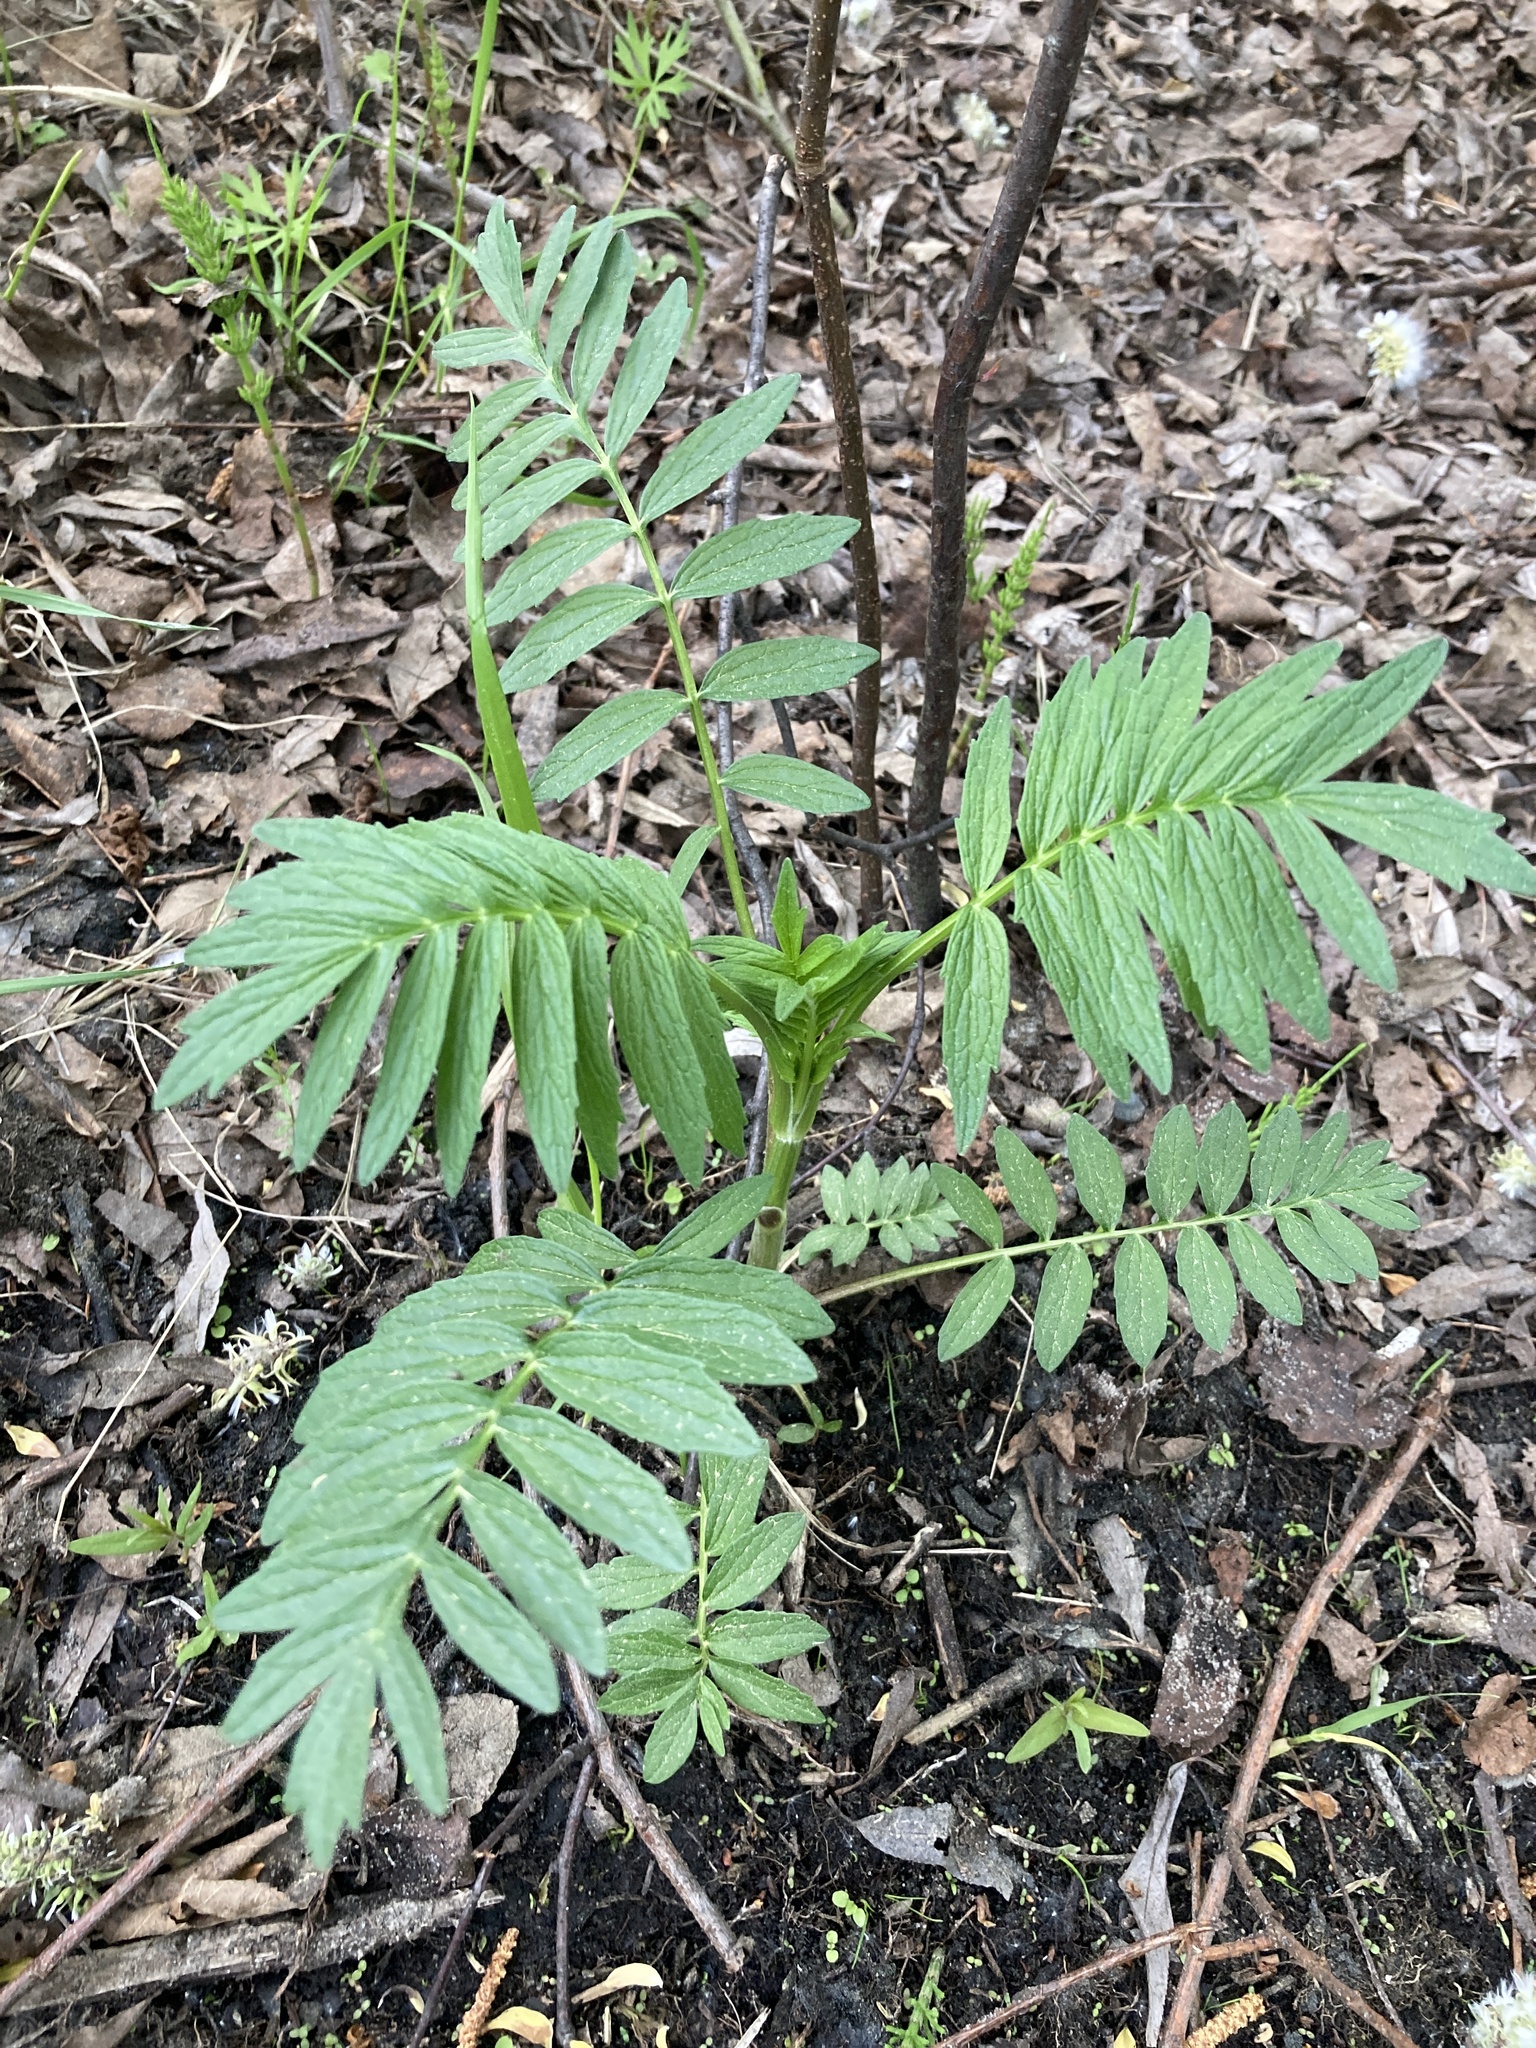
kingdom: Plantae
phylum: Tracheophyta
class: Magnoliopsida
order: Dipsacales
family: Caprifoliaceae
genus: Valeriana
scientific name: Valeriana officinalis
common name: Common valerian
